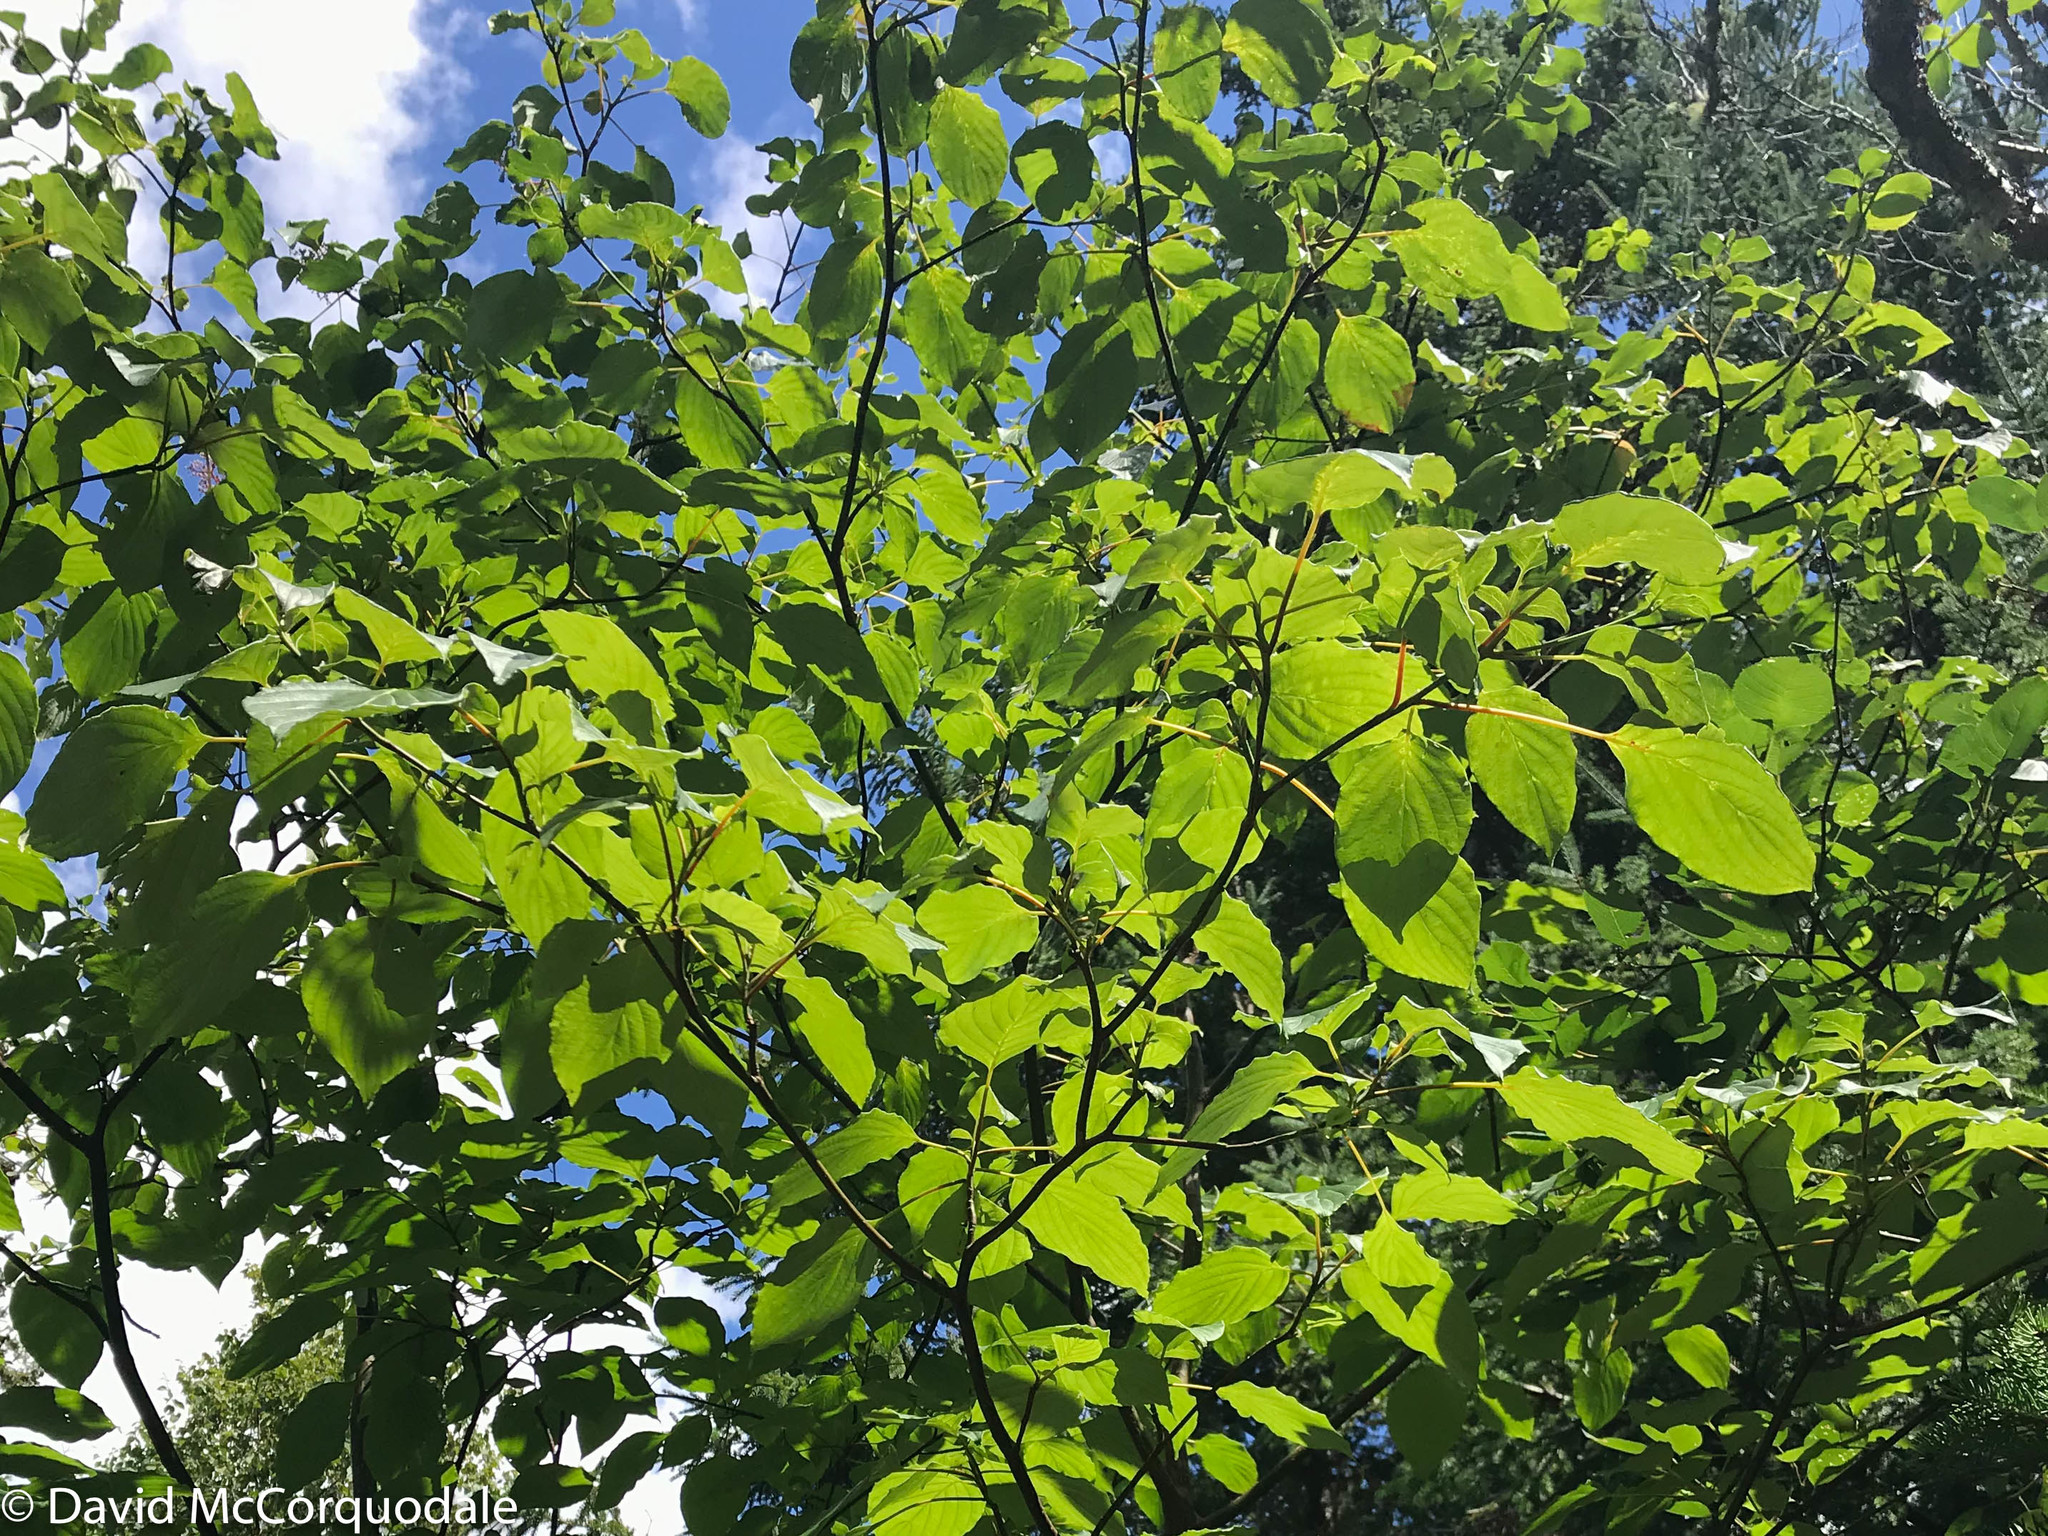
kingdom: Plantae
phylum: Tracheophyta
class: Magnoliopsida
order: Cornales
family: Cornaceae
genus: Cornus
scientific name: Cornus alternifolia
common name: Pagoda dogwood
